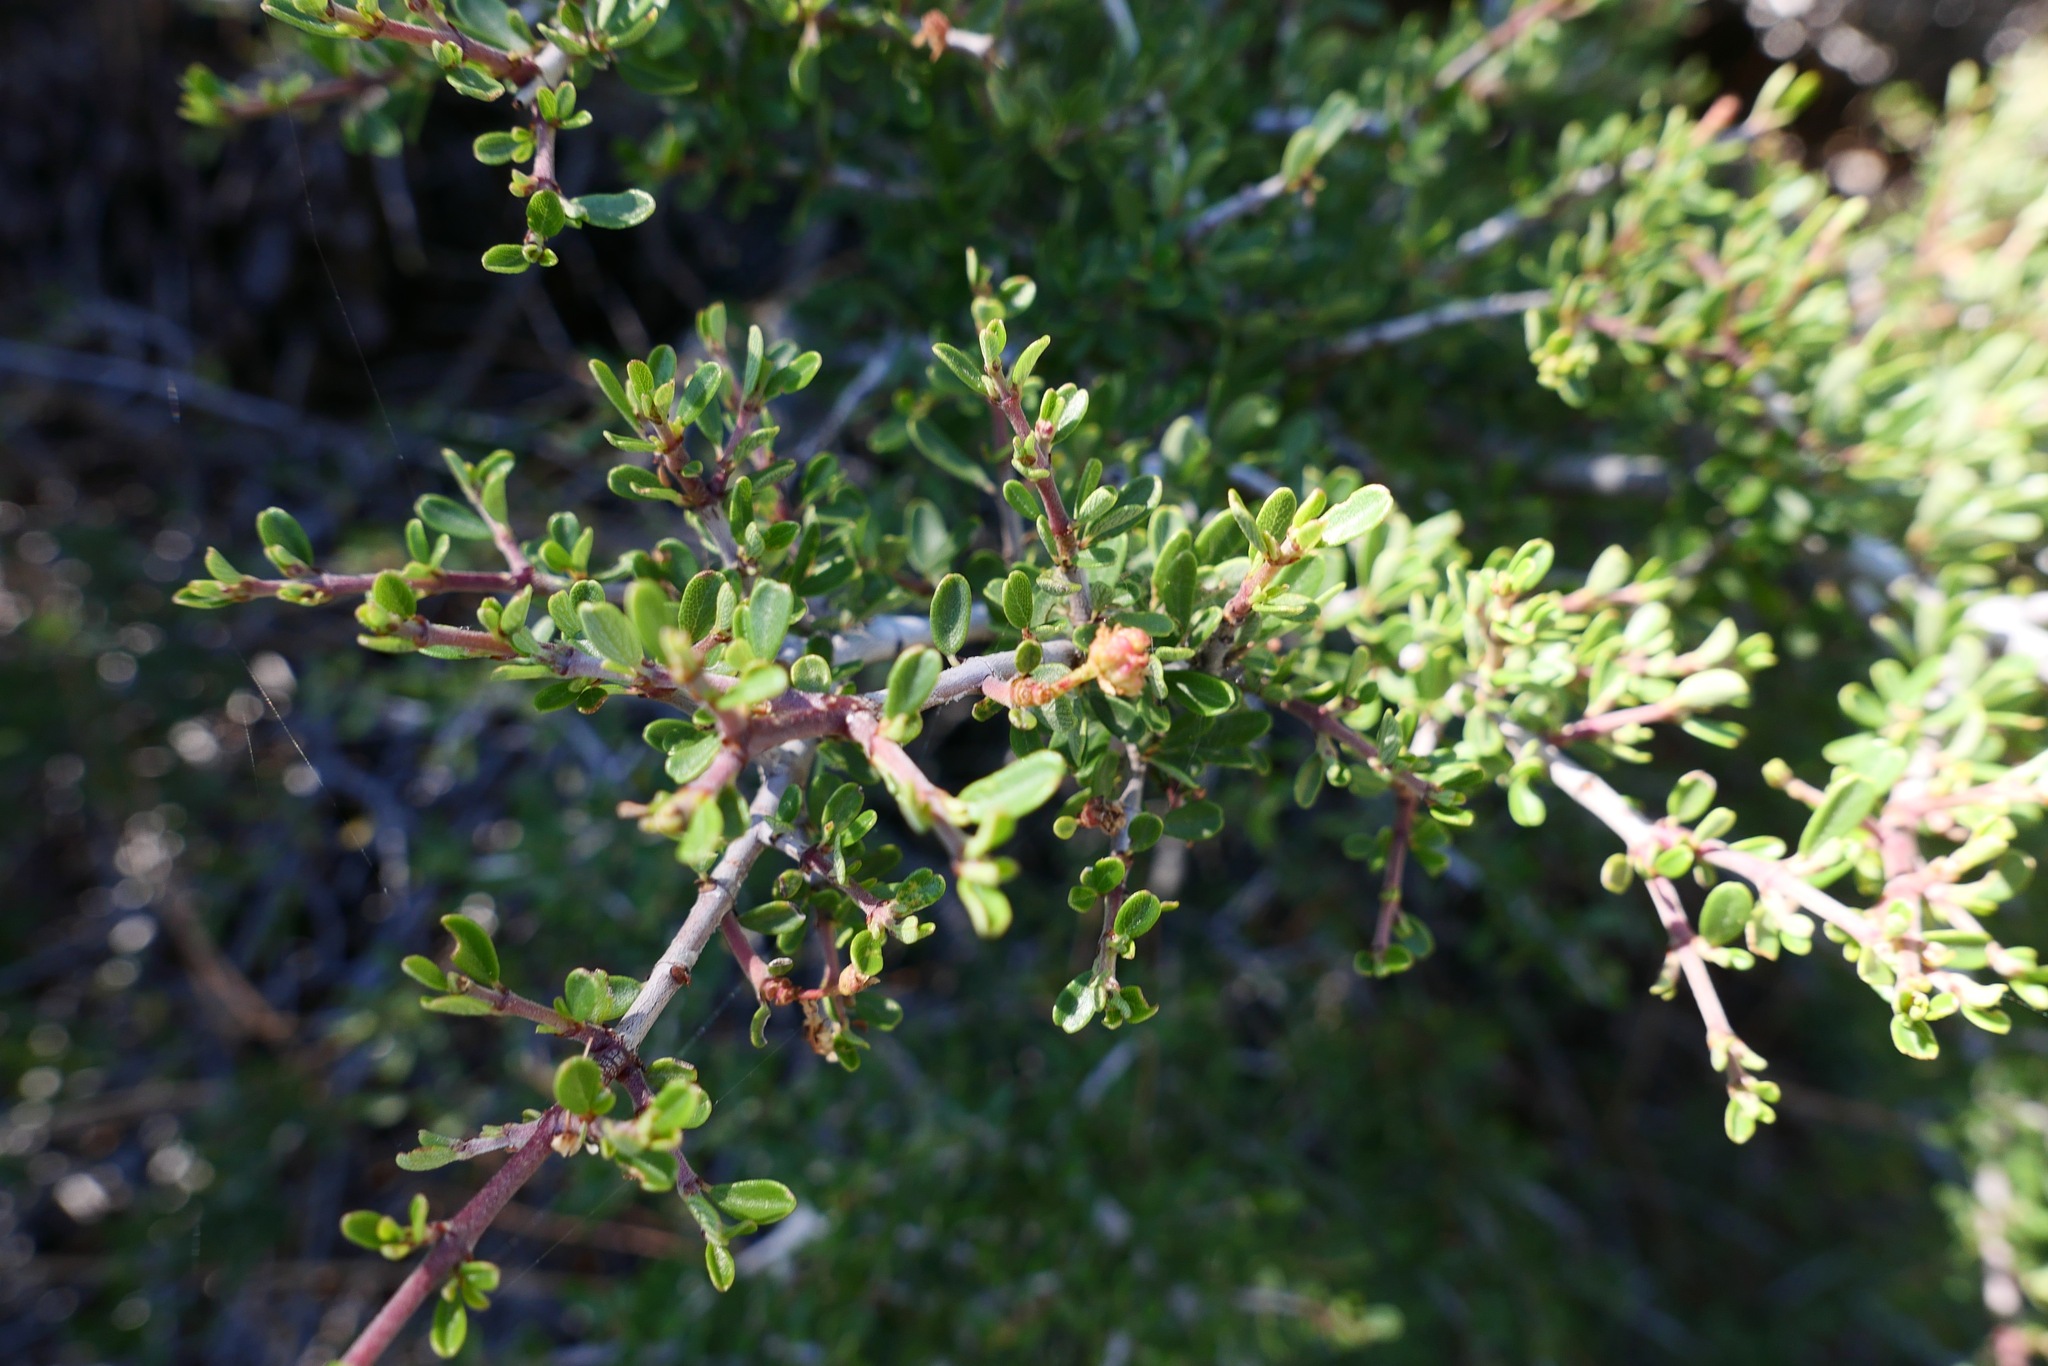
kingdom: Plantae
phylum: Tracheophyta
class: Magnoliopsida
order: Rosales
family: Rhamnaceae
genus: Ceanothus
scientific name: Ceanothus cuneatus
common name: Cuneate ceanothus
